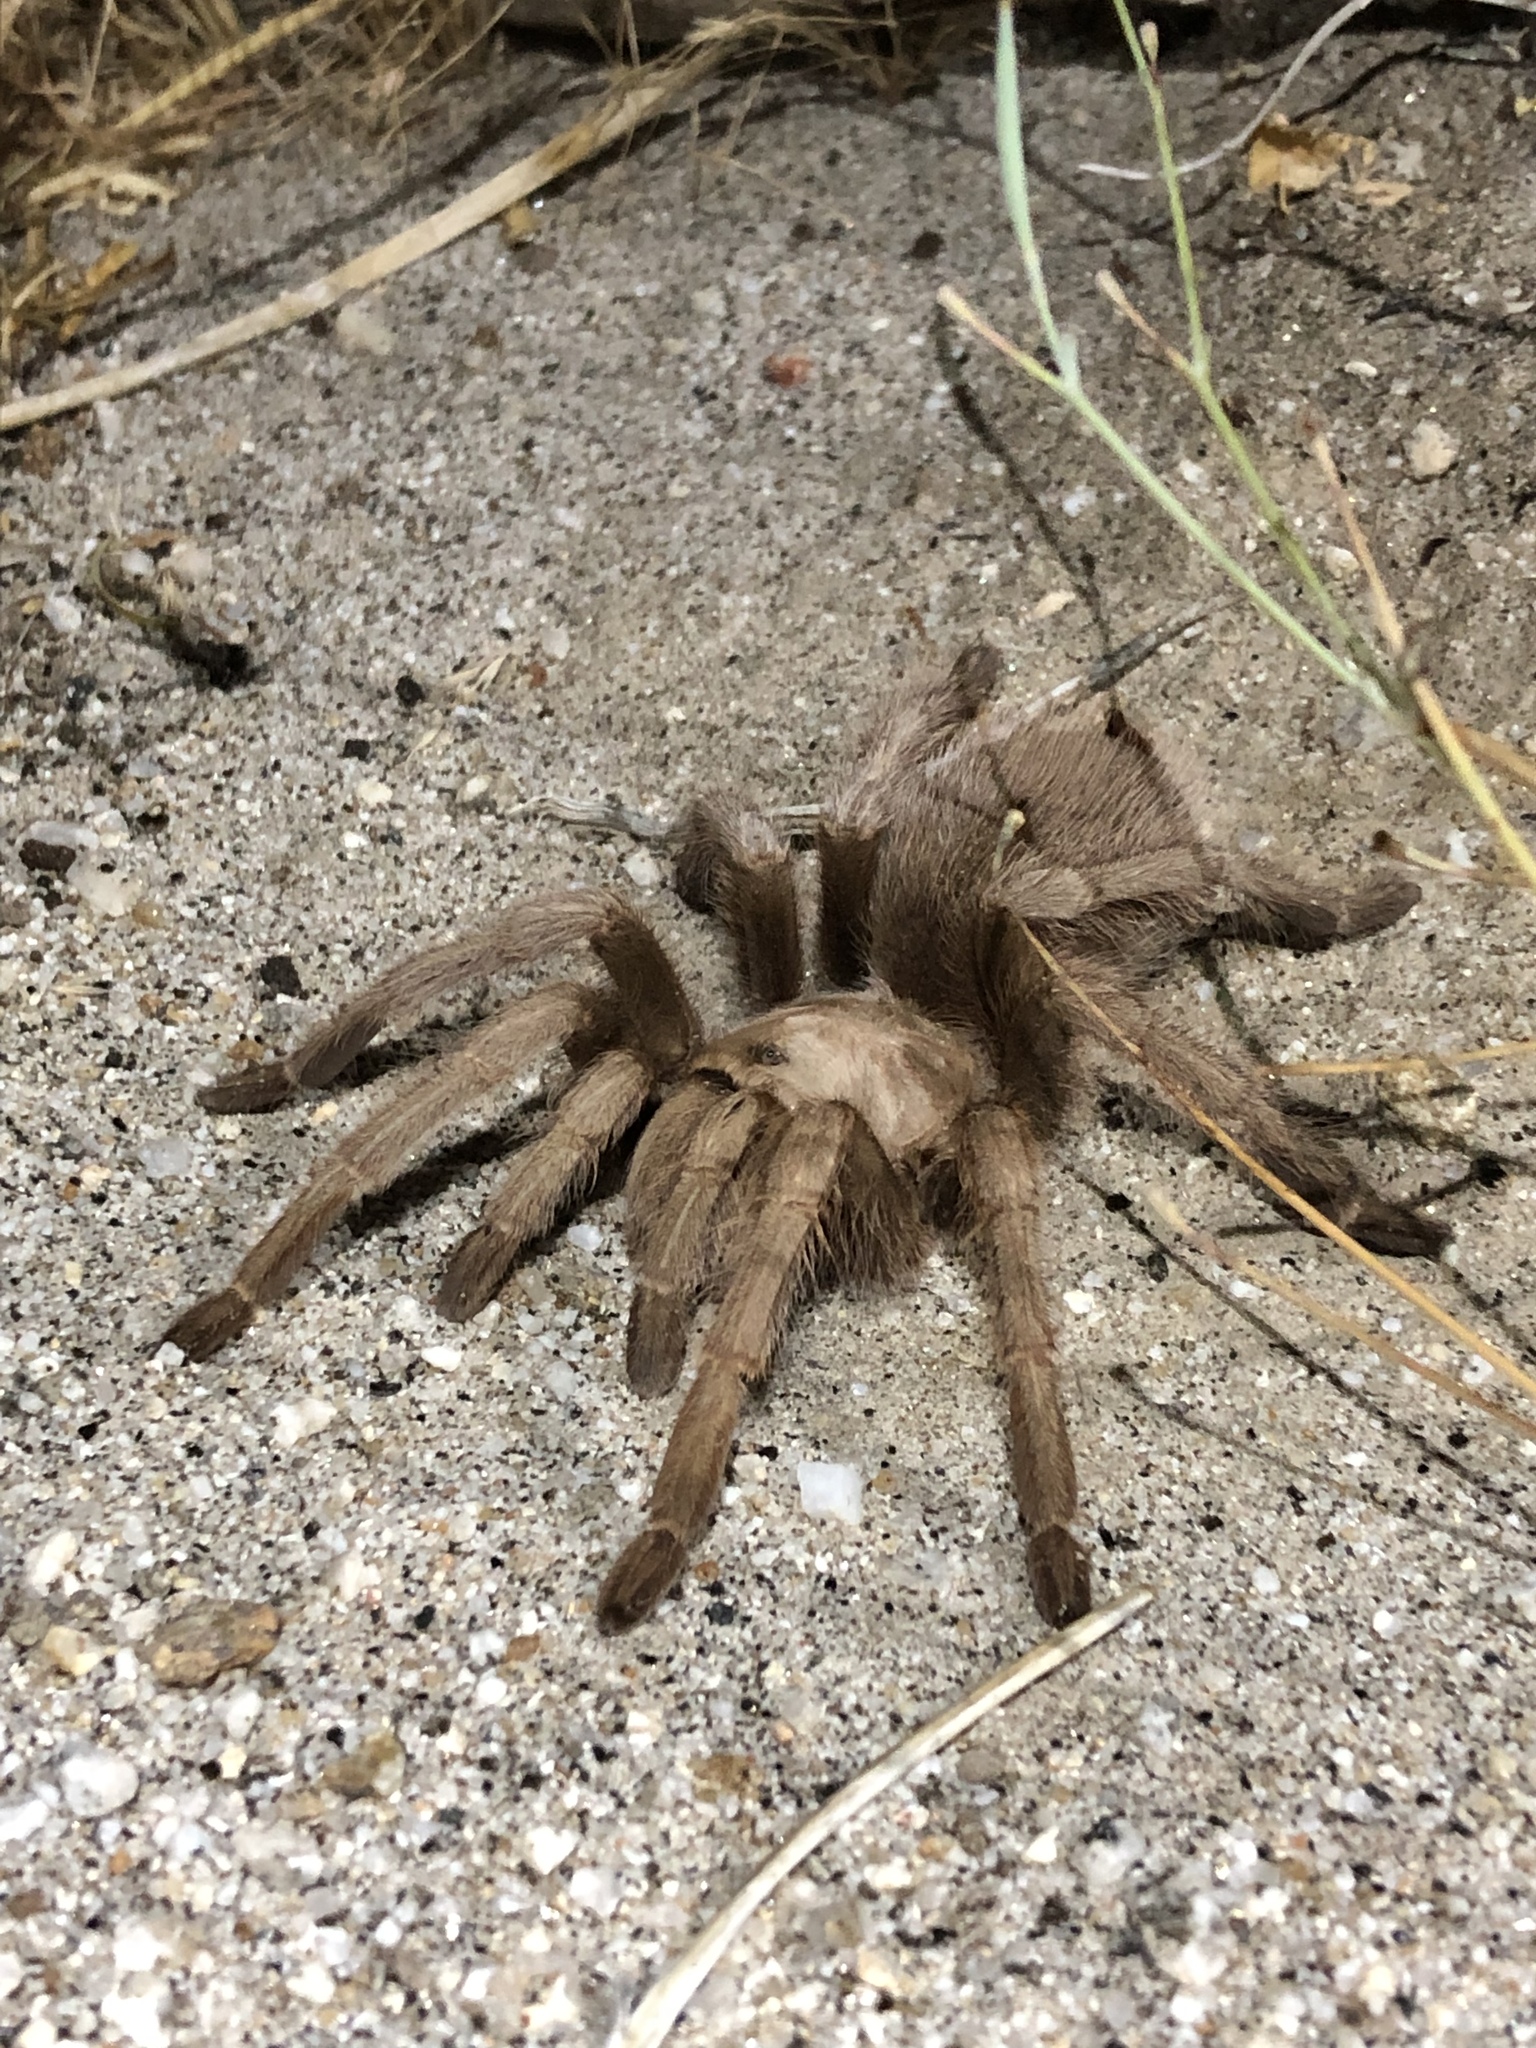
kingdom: Animalia
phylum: Arthropoda
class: Arachnida
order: Araneae
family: Theraphosidae
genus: Aphonopelma
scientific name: Aphonopelma eutylenum
